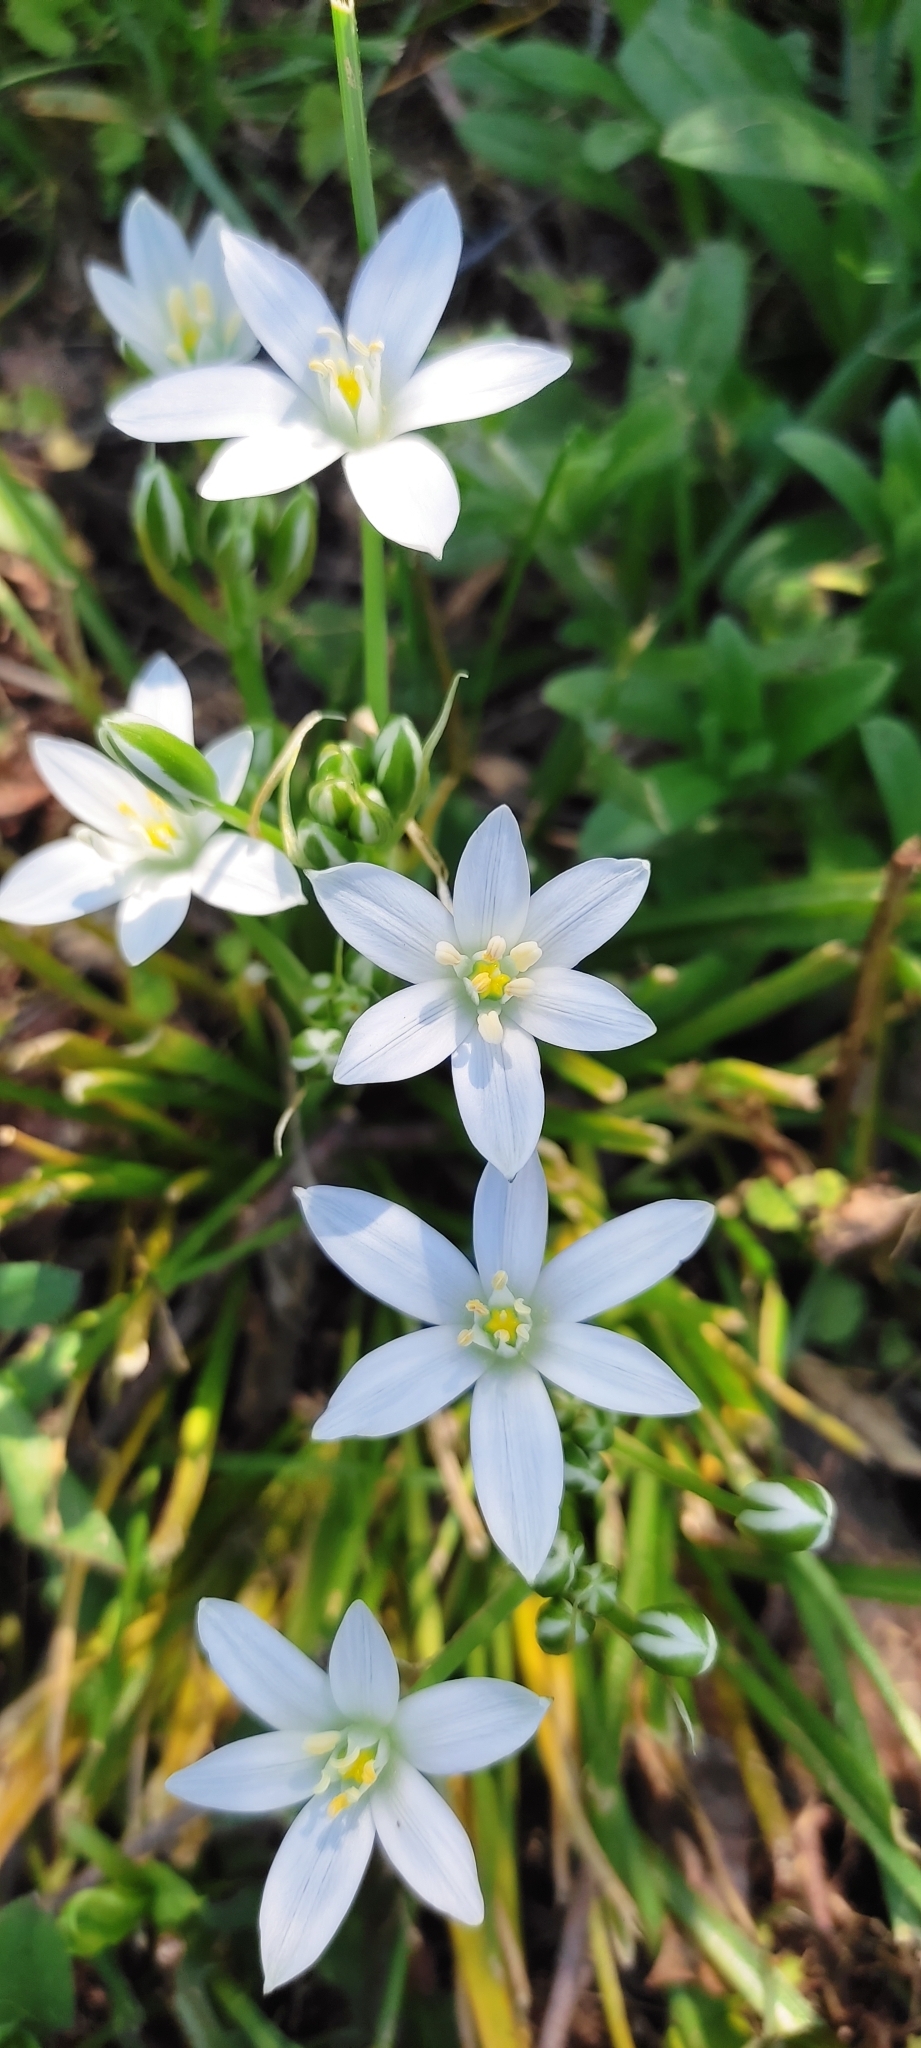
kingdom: Plantae
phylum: Tracheophyta
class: Liliopsida
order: Asparagales
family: Asparagaceae
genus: Ornithogalum
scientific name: Ornithogalum umbellatum
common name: Garden star-of-bethlehem
